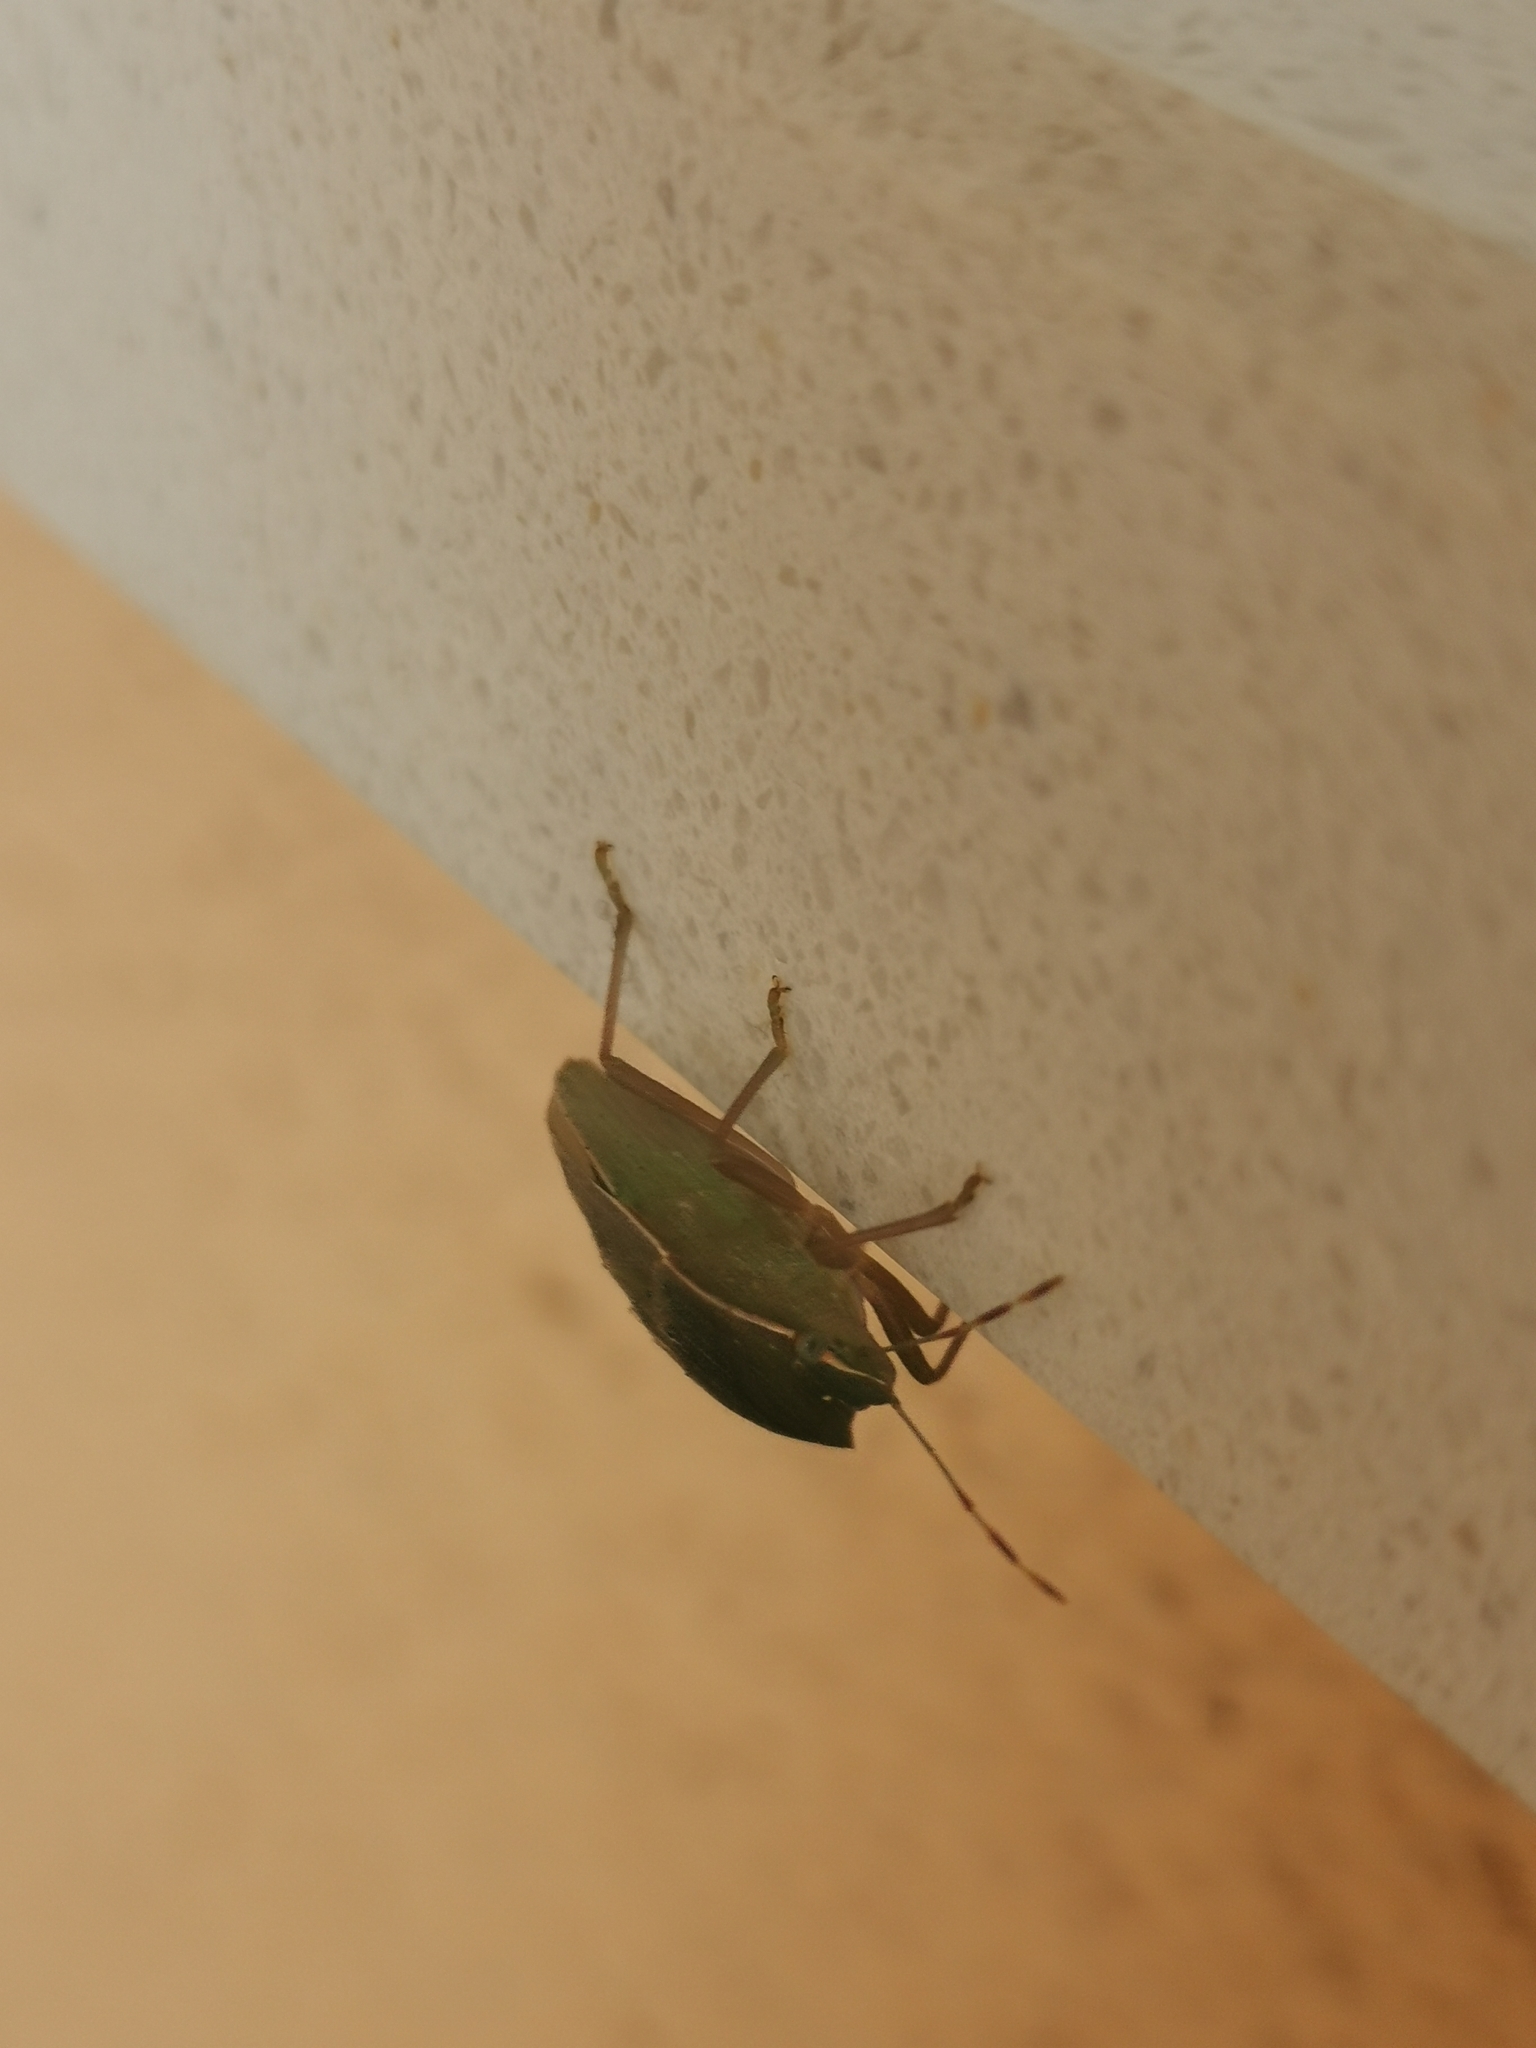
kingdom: Animalia
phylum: Arthropoda
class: Insecta
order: Hemiptera
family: Pentatomidae
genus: Nezara
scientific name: Nezara viridula
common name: Southern green stink bug
